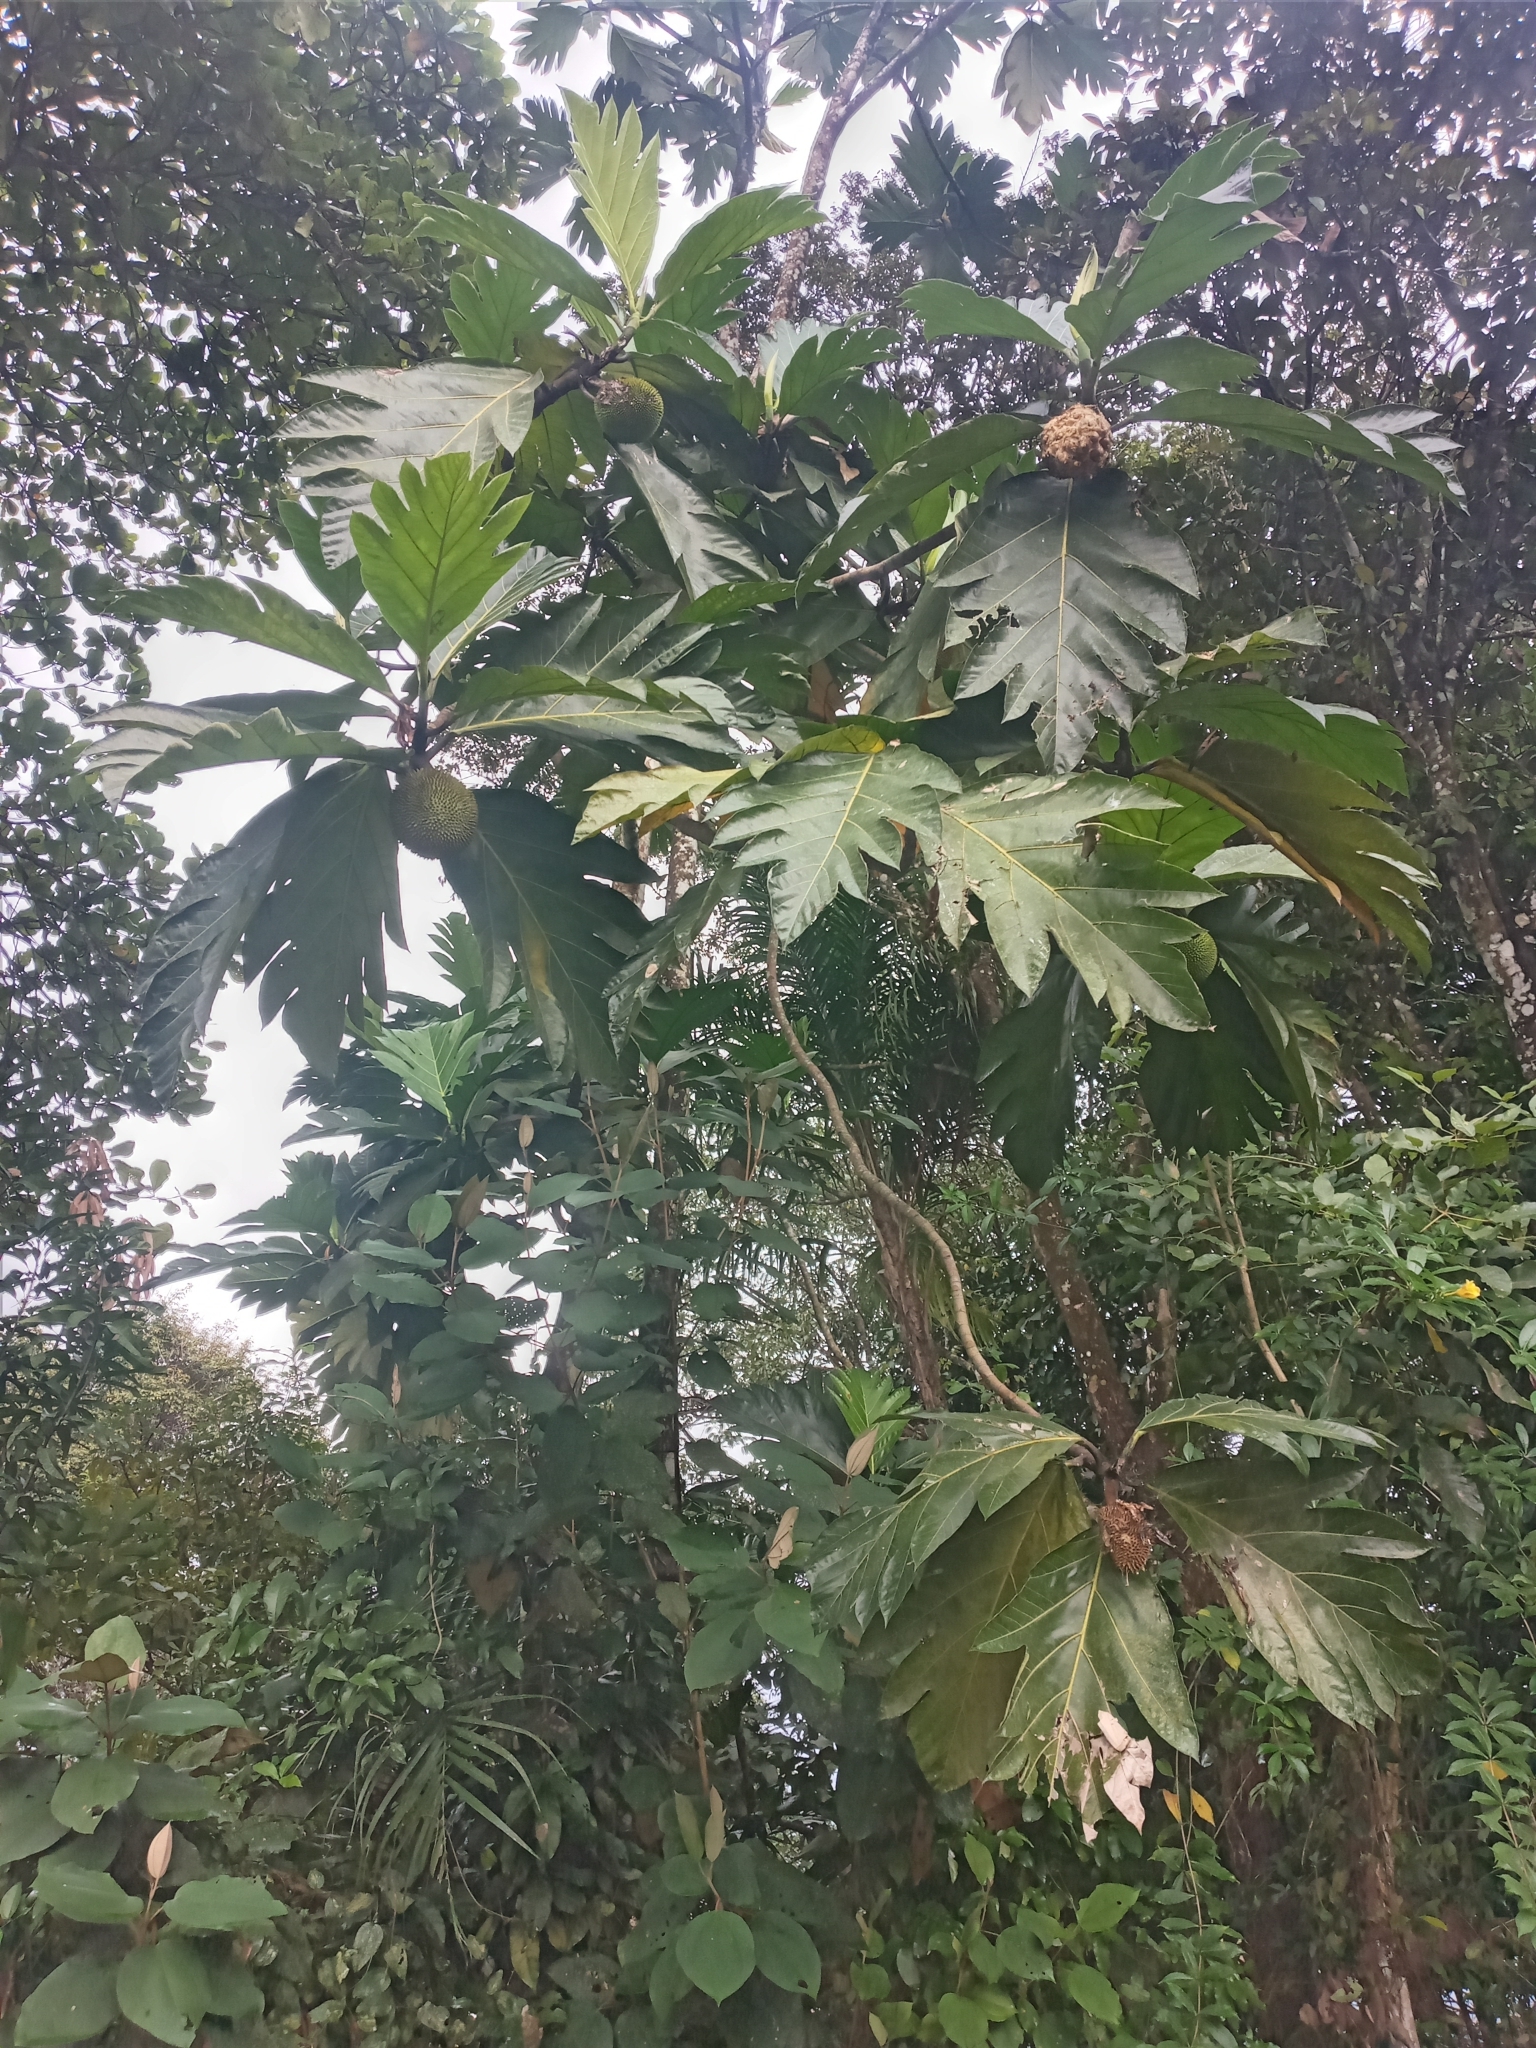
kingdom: Plantae
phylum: Tracheophyta
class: Magnoliopsida
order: Rosales
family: Moraceae
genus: Artocarpus
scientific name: Artocarpus altilis
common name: Breadfruit
